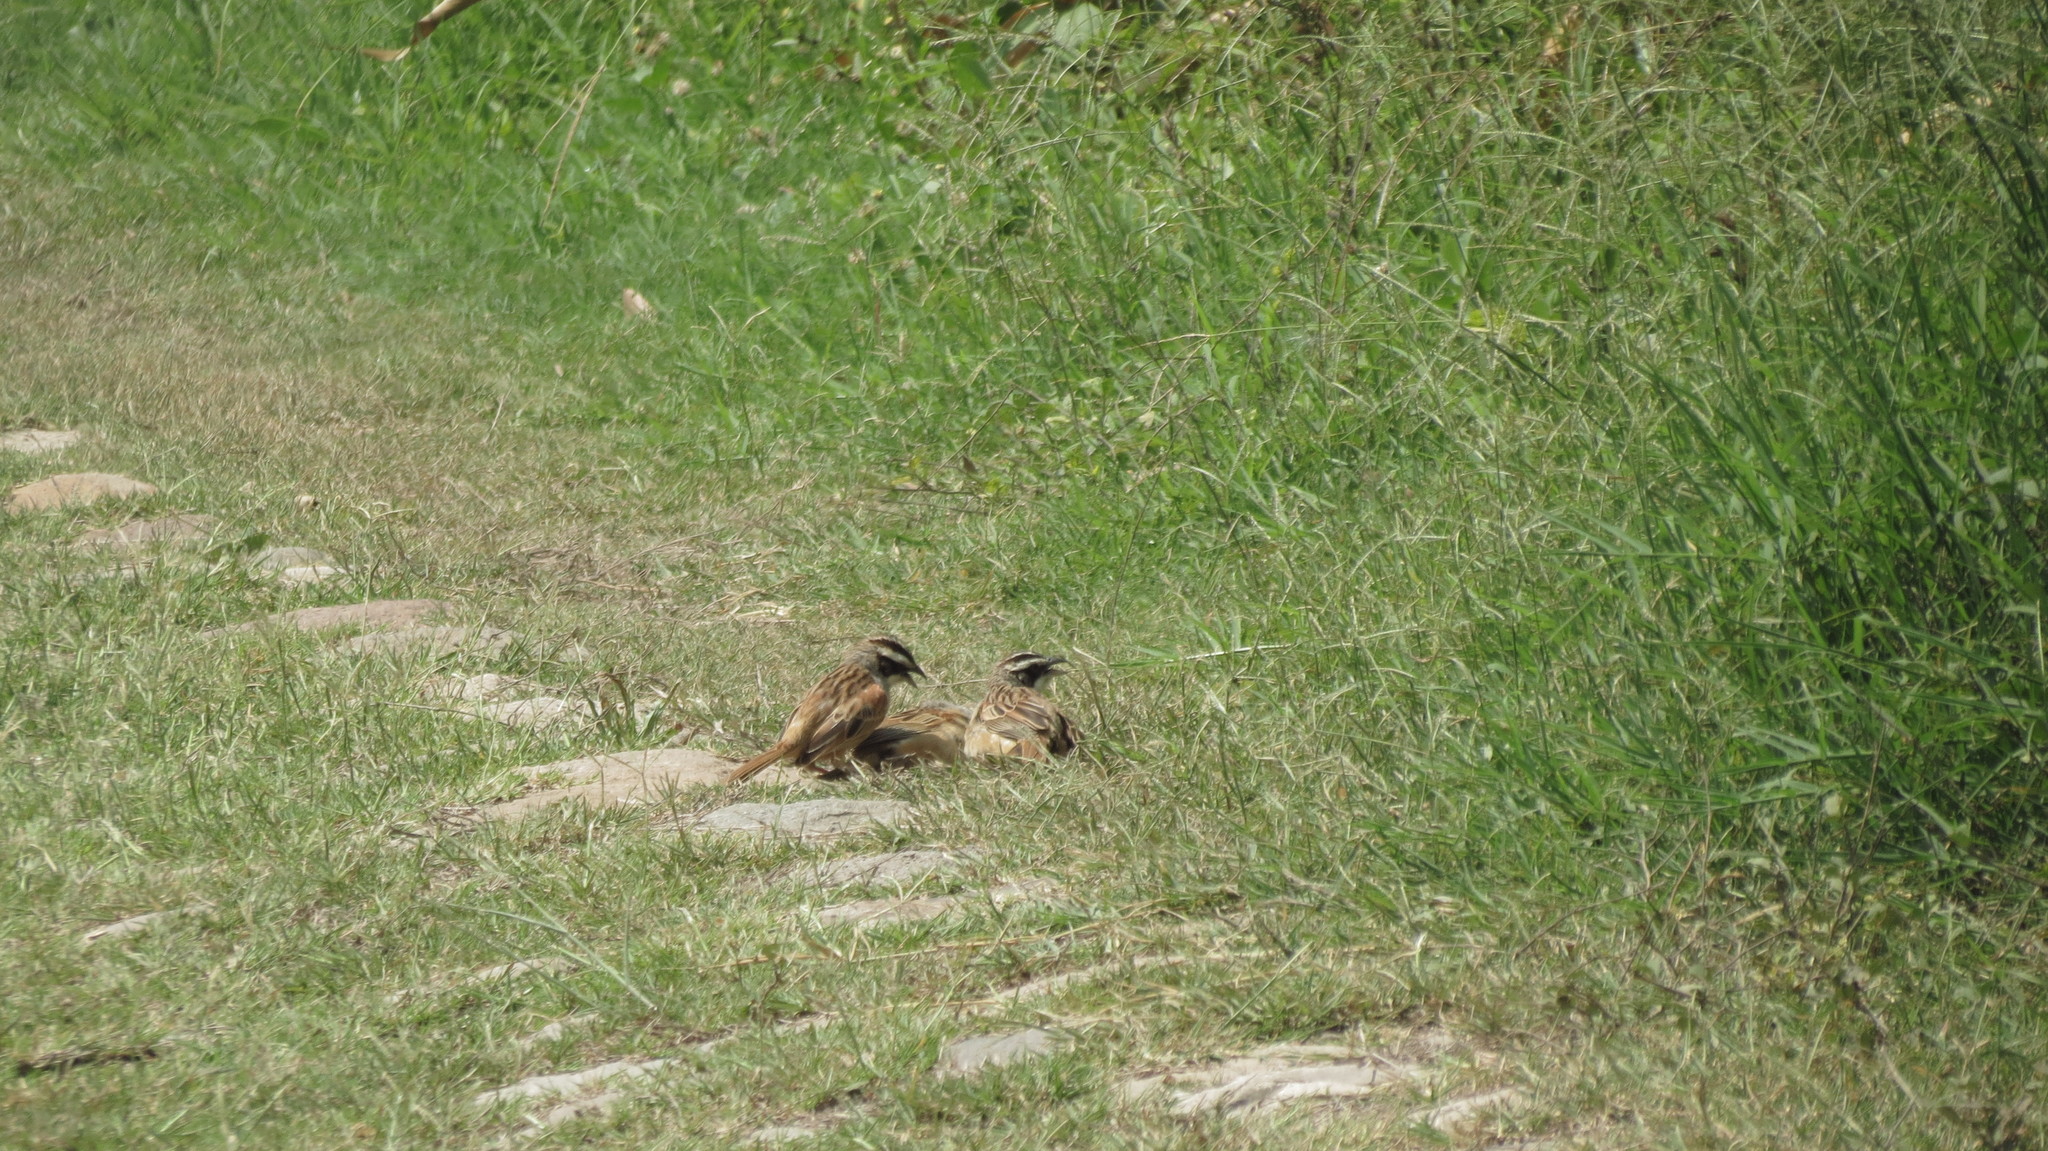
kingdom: Animalia
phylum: Chordata
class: Aves
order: Passeriformes
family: Passerellidae
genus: Peucaea
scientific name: Peucaea ruficauda
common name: Stripe-headed sparrow
